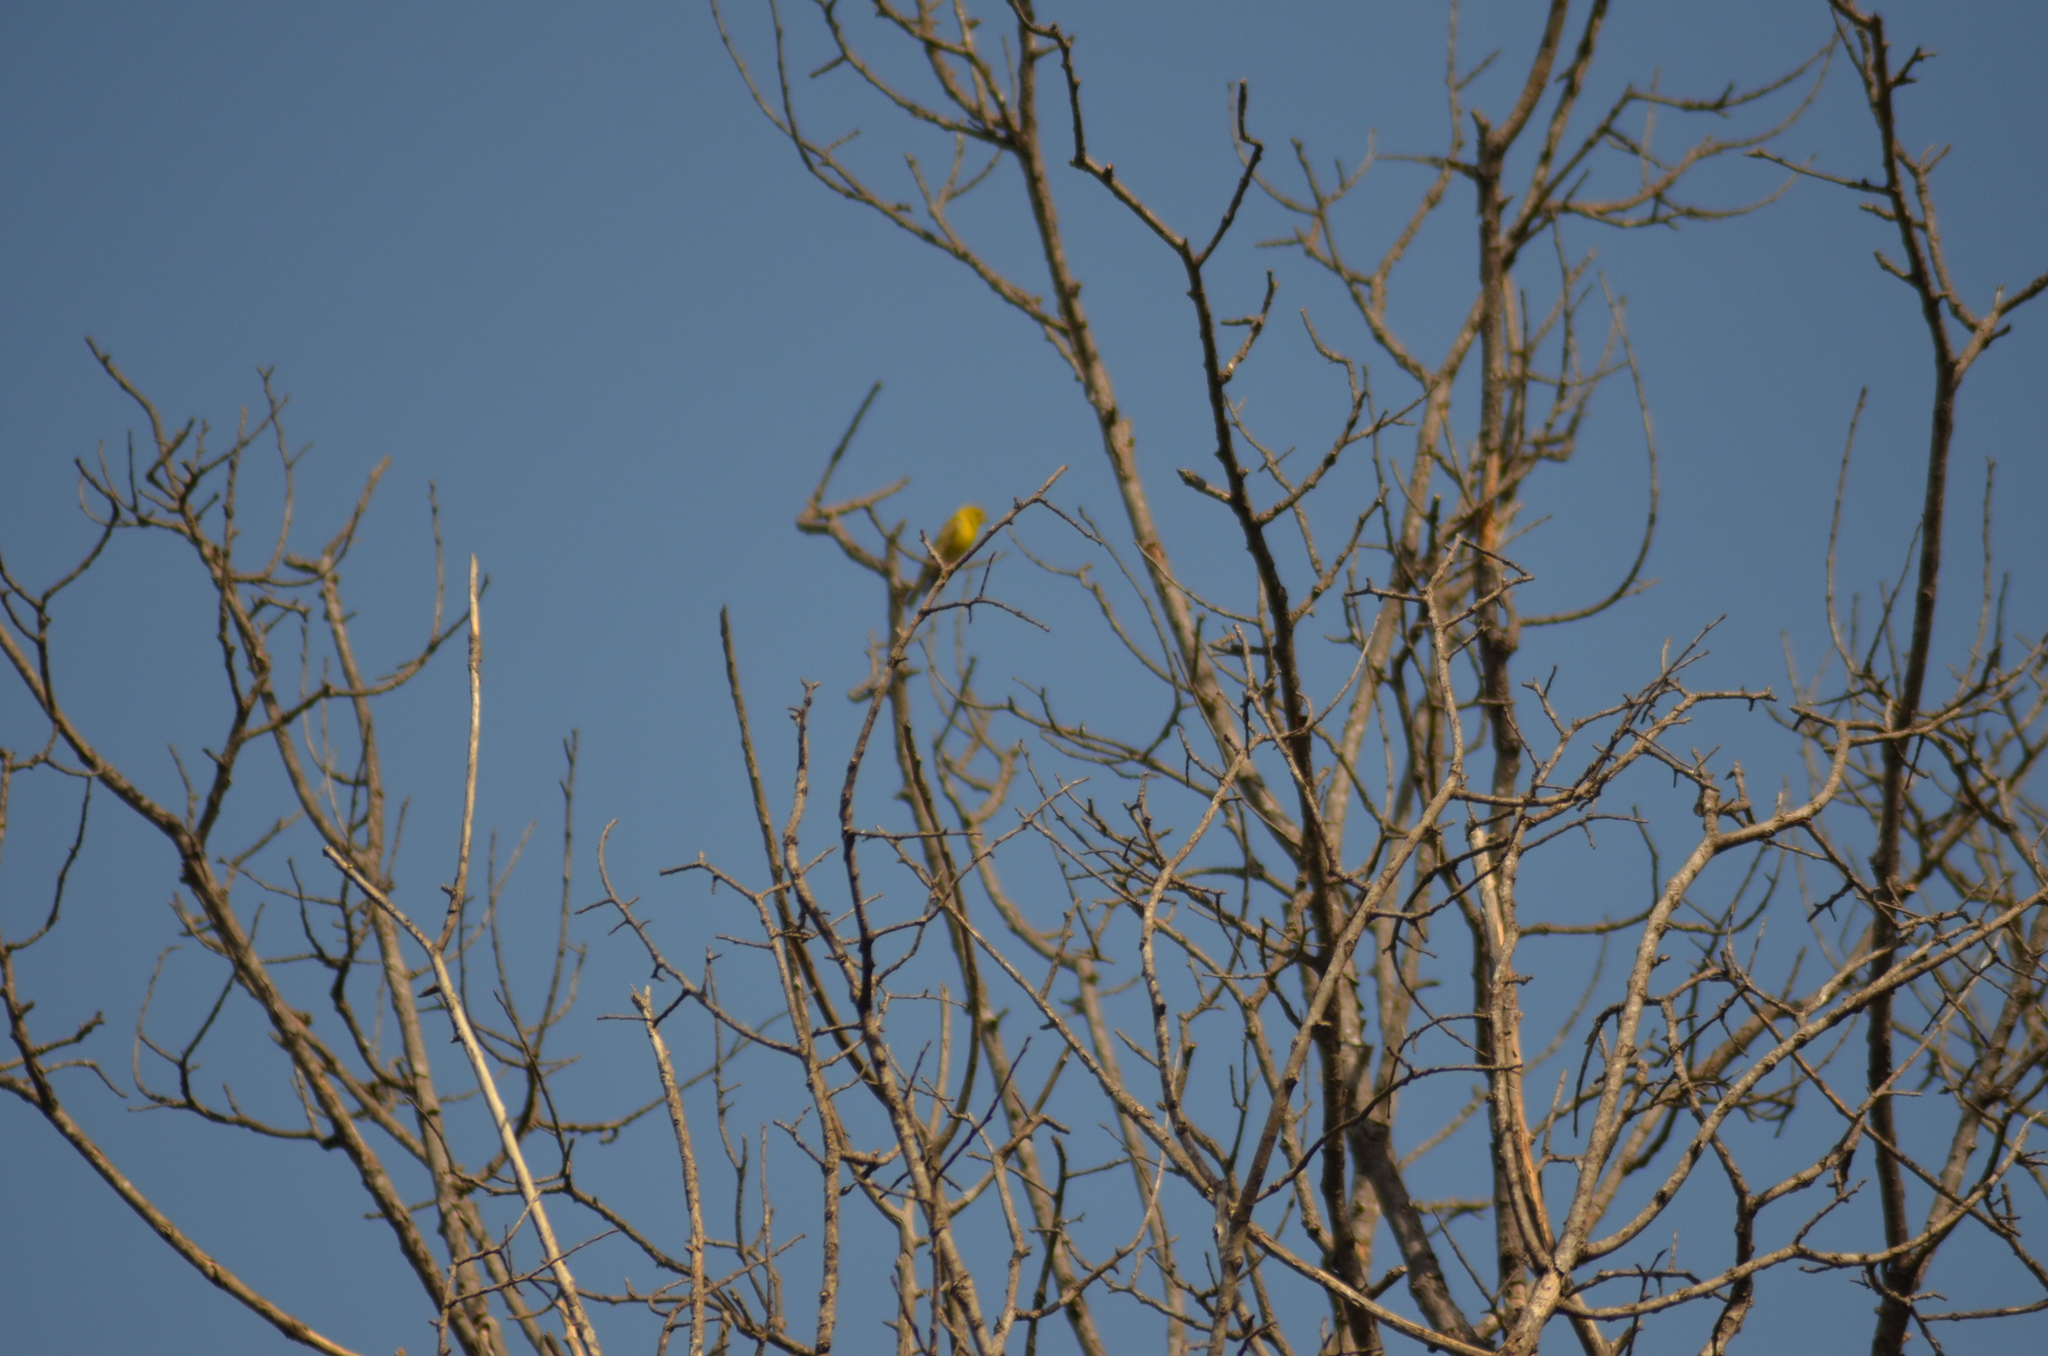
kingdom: Animalia
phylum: Chordata
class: Aves
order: Passeriformes
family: Fringillidae
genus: Serinus
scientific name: Serinus serinus
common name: European serin
